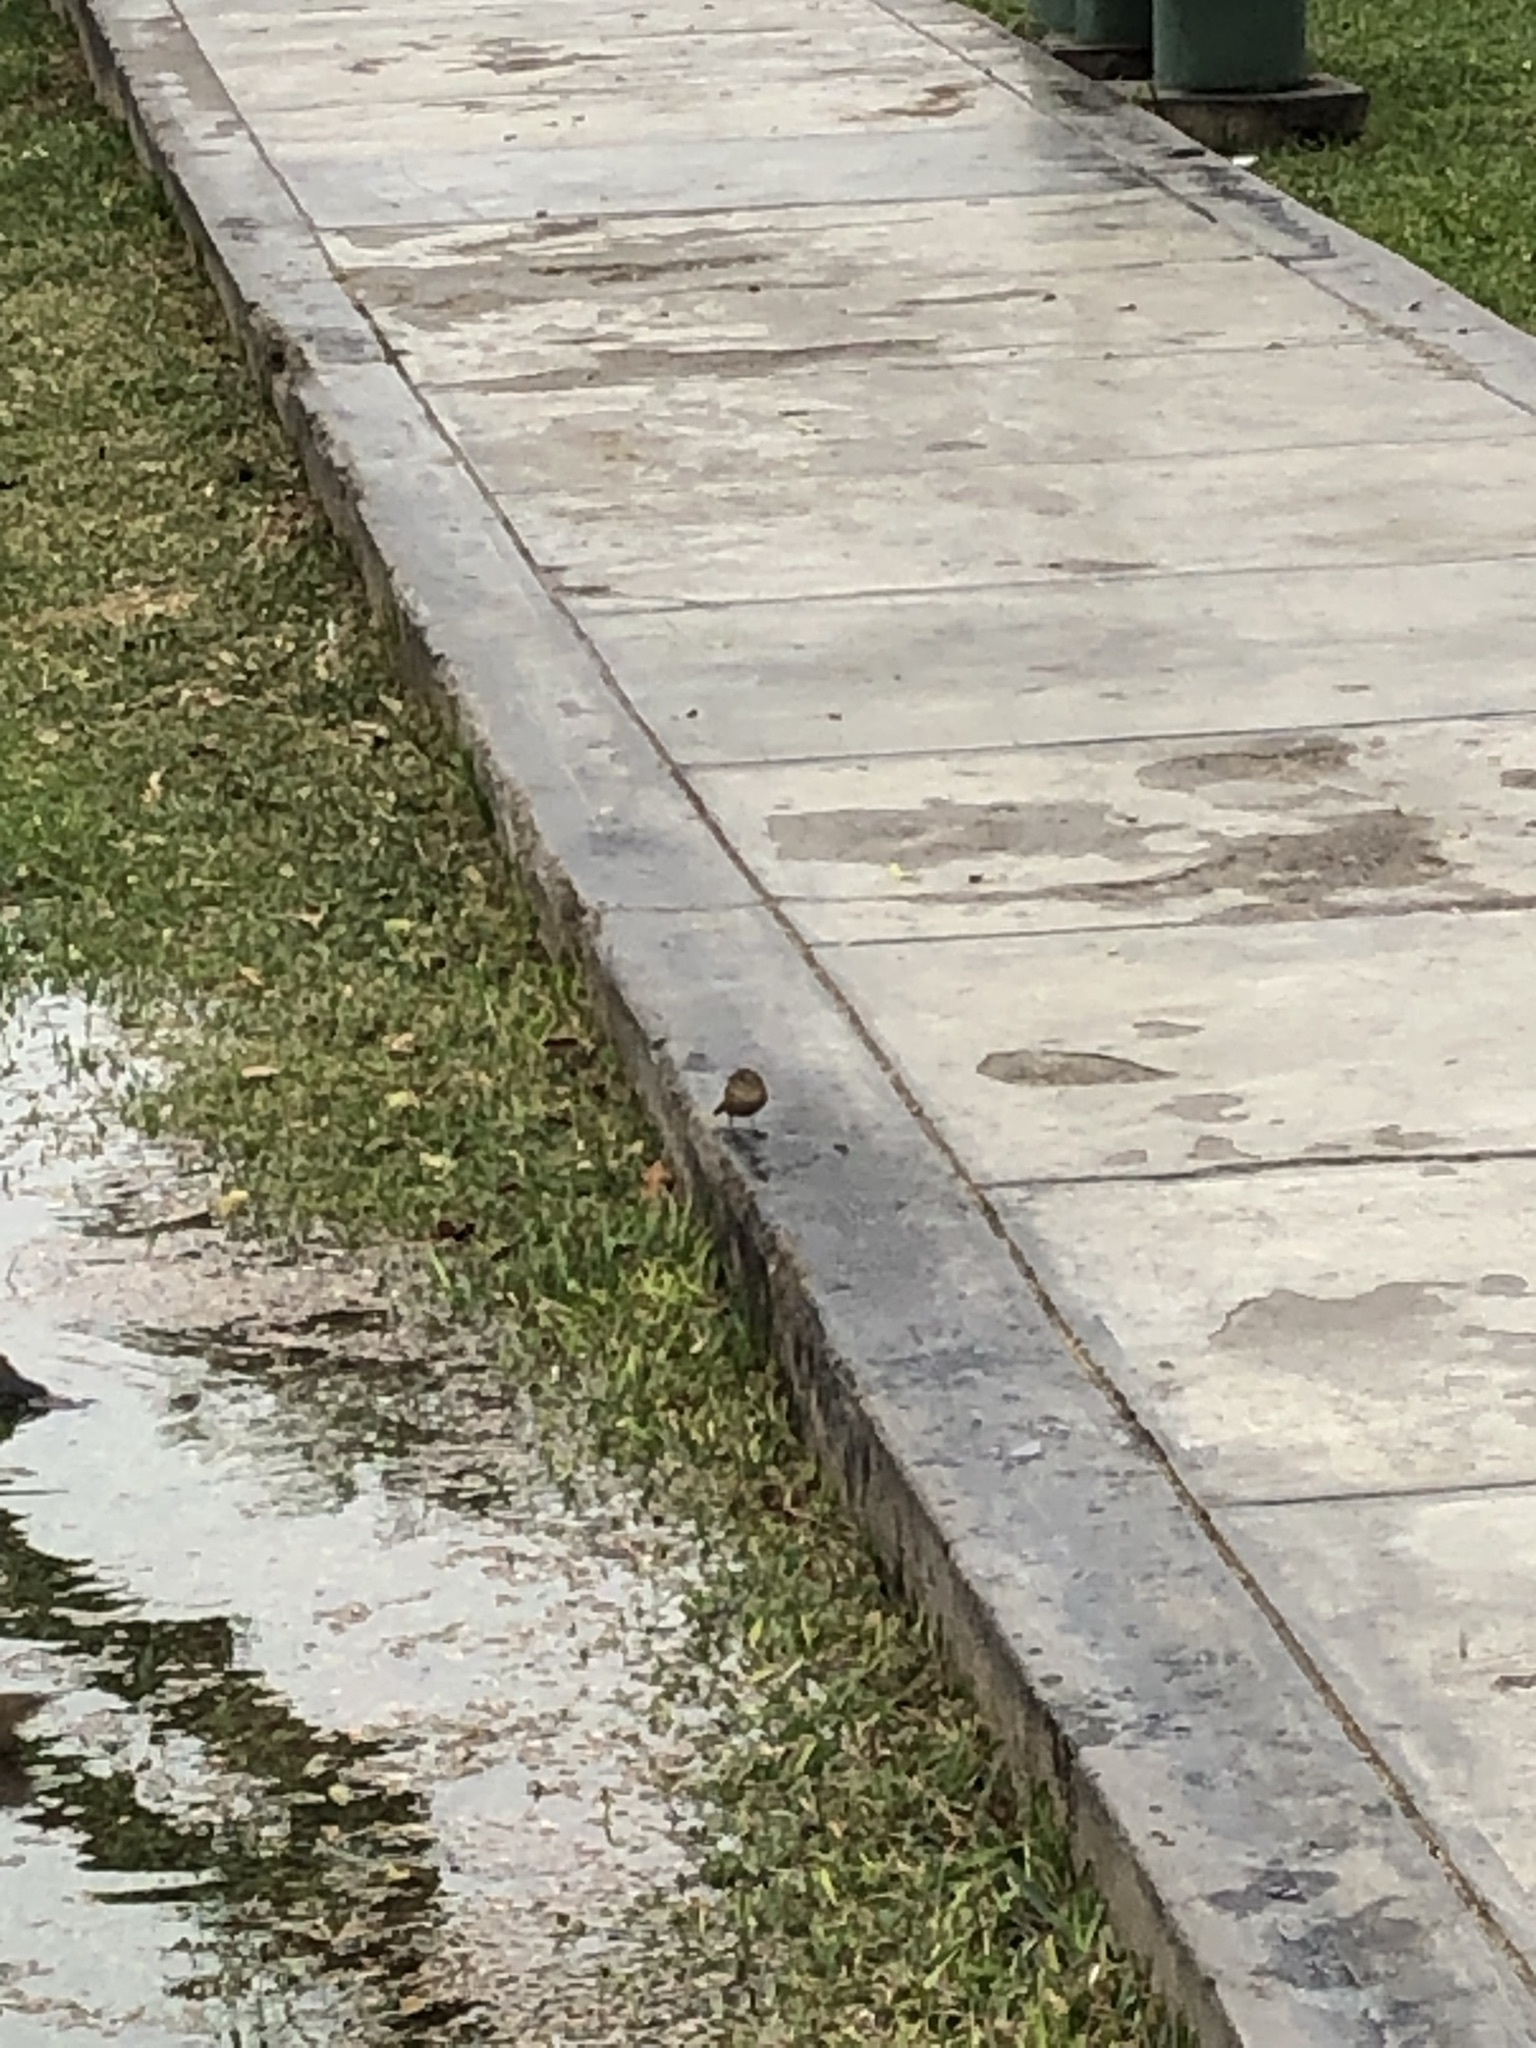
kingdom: Animalia
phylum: Chordata
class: Aves
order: Passeriformes
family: Troglodytidae
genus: Troglodytes
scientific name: Troglodytes aedon
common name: House wren
